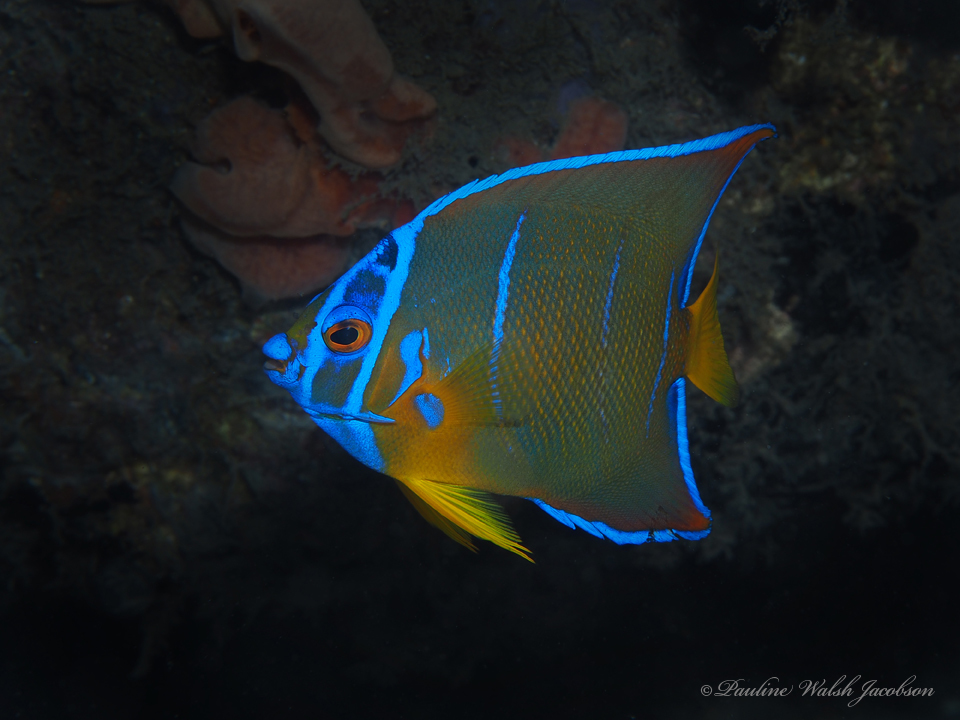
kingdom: Animalia
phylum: Chordata
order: Perciformes
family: Pomacanthidae
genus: Holacanthus
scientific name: Holacanthus ciliaris
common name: Queen angelfish
